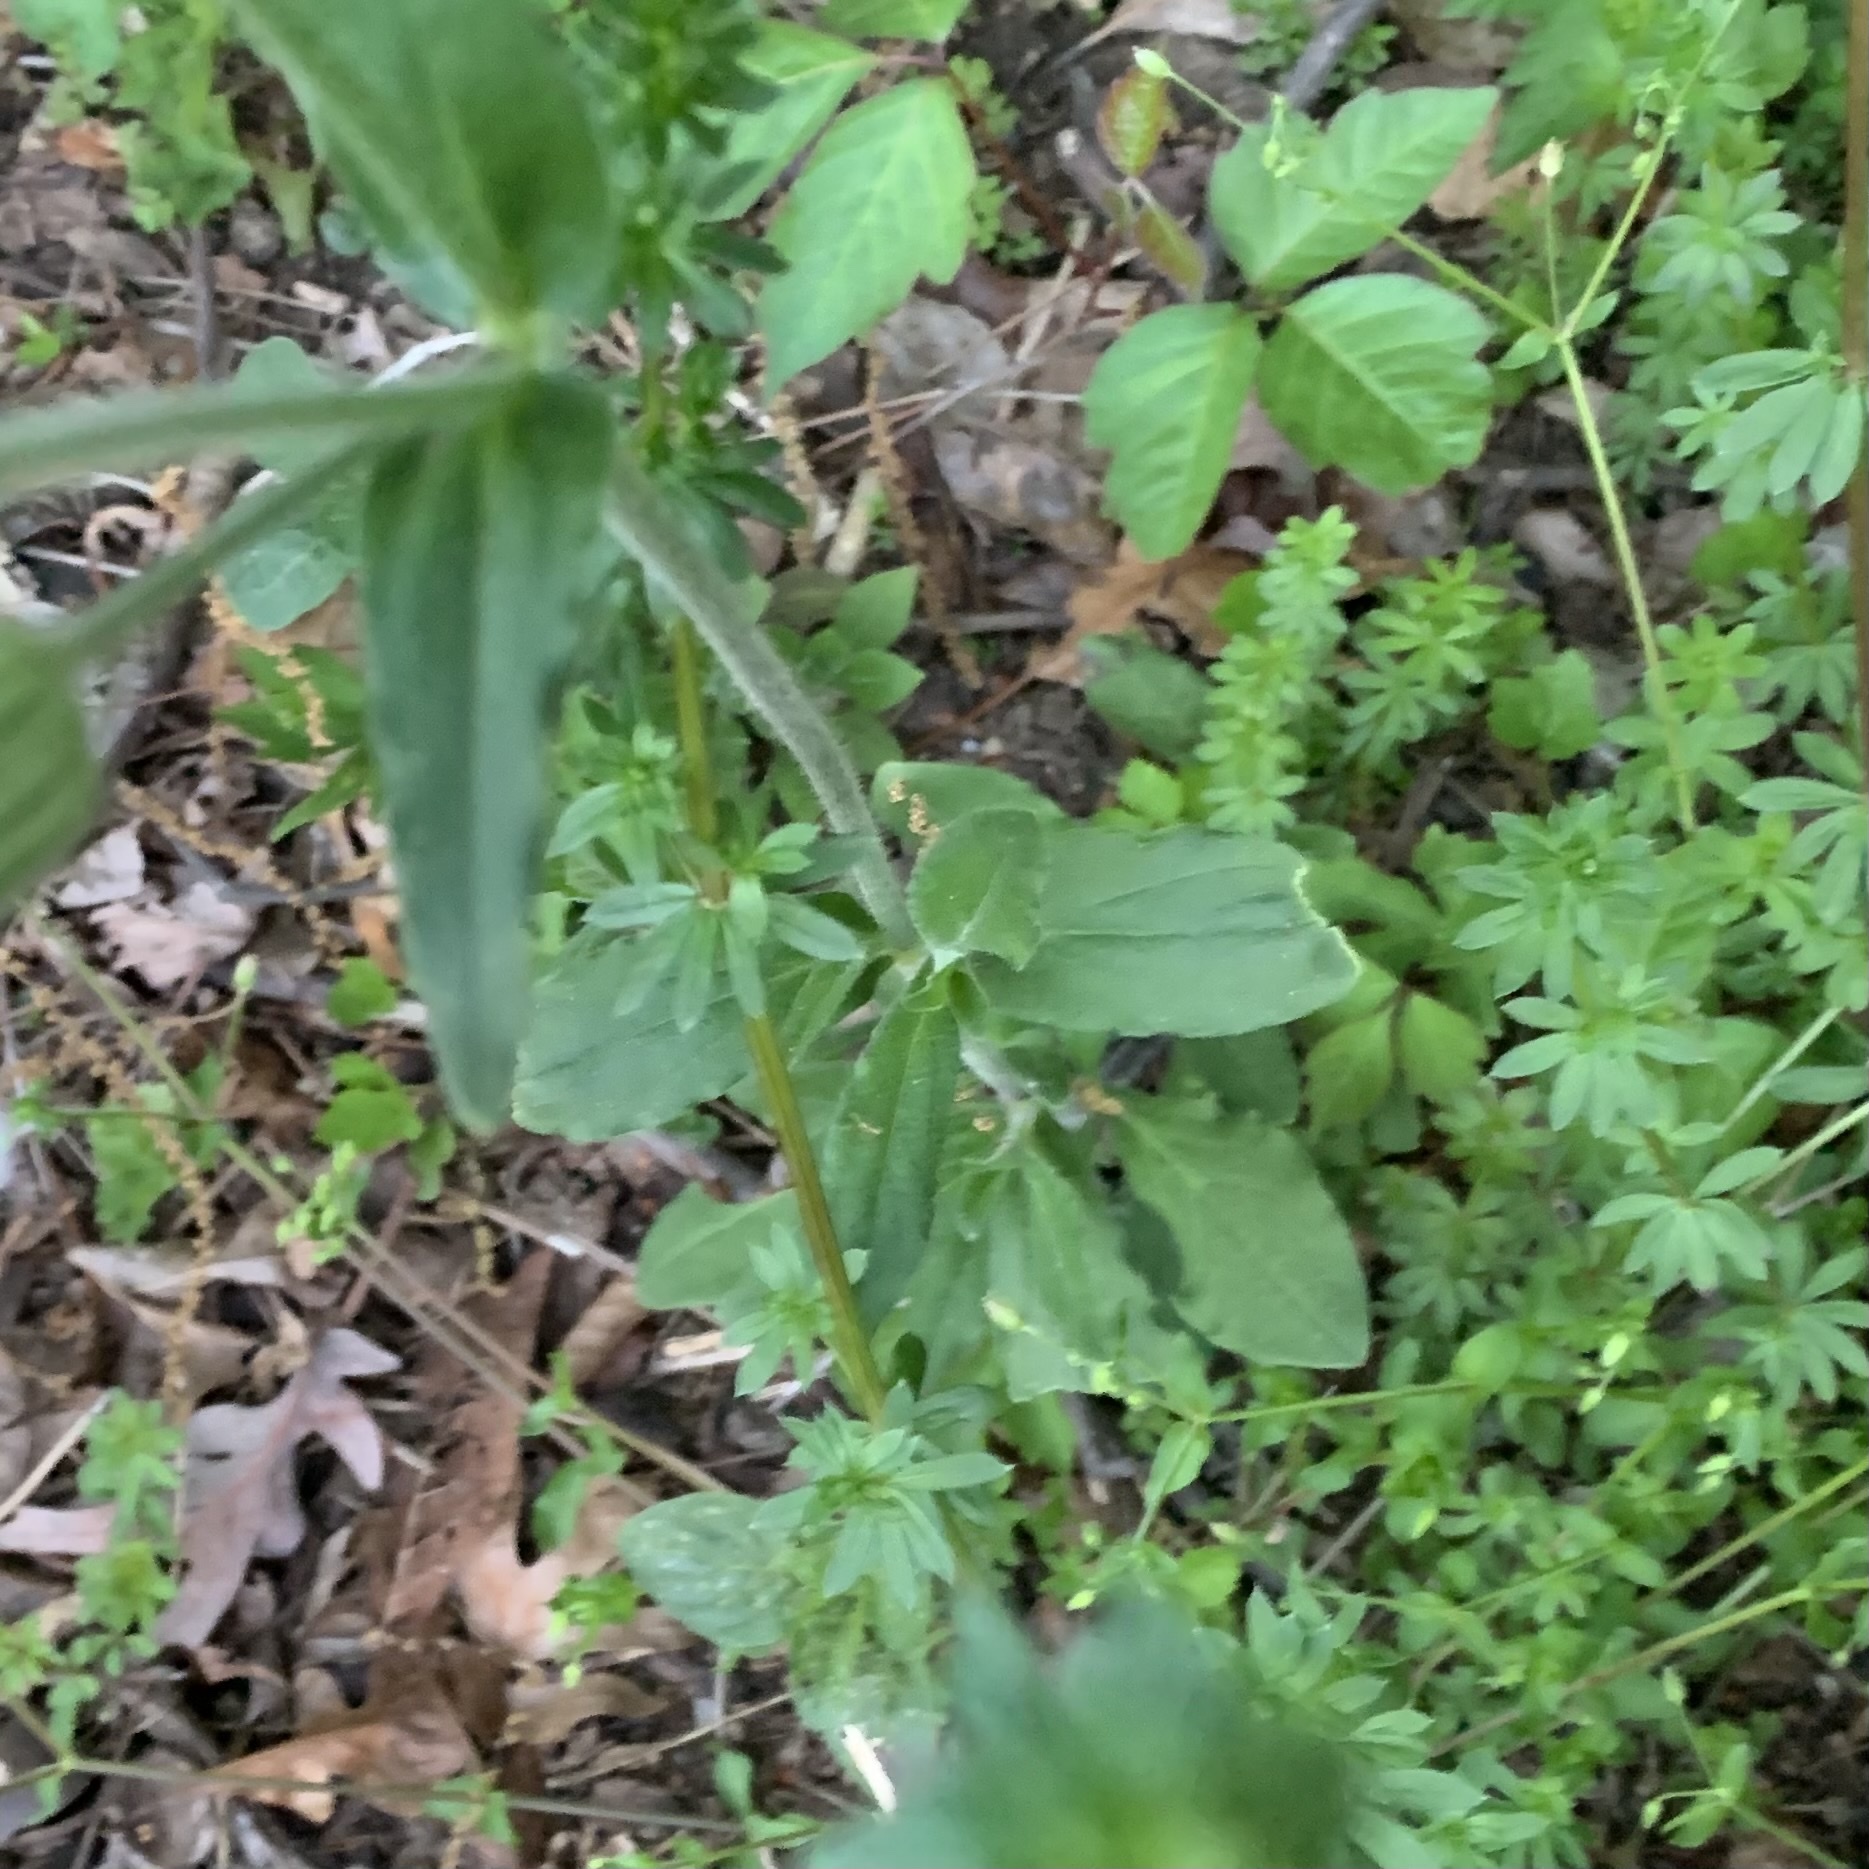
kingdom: Plantae
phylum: Tracheophyta
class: Magnoliopsida
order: Caryophyllales
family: Caryophyllaceae
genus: Silene
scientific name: Silene latifolia
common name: White campion
